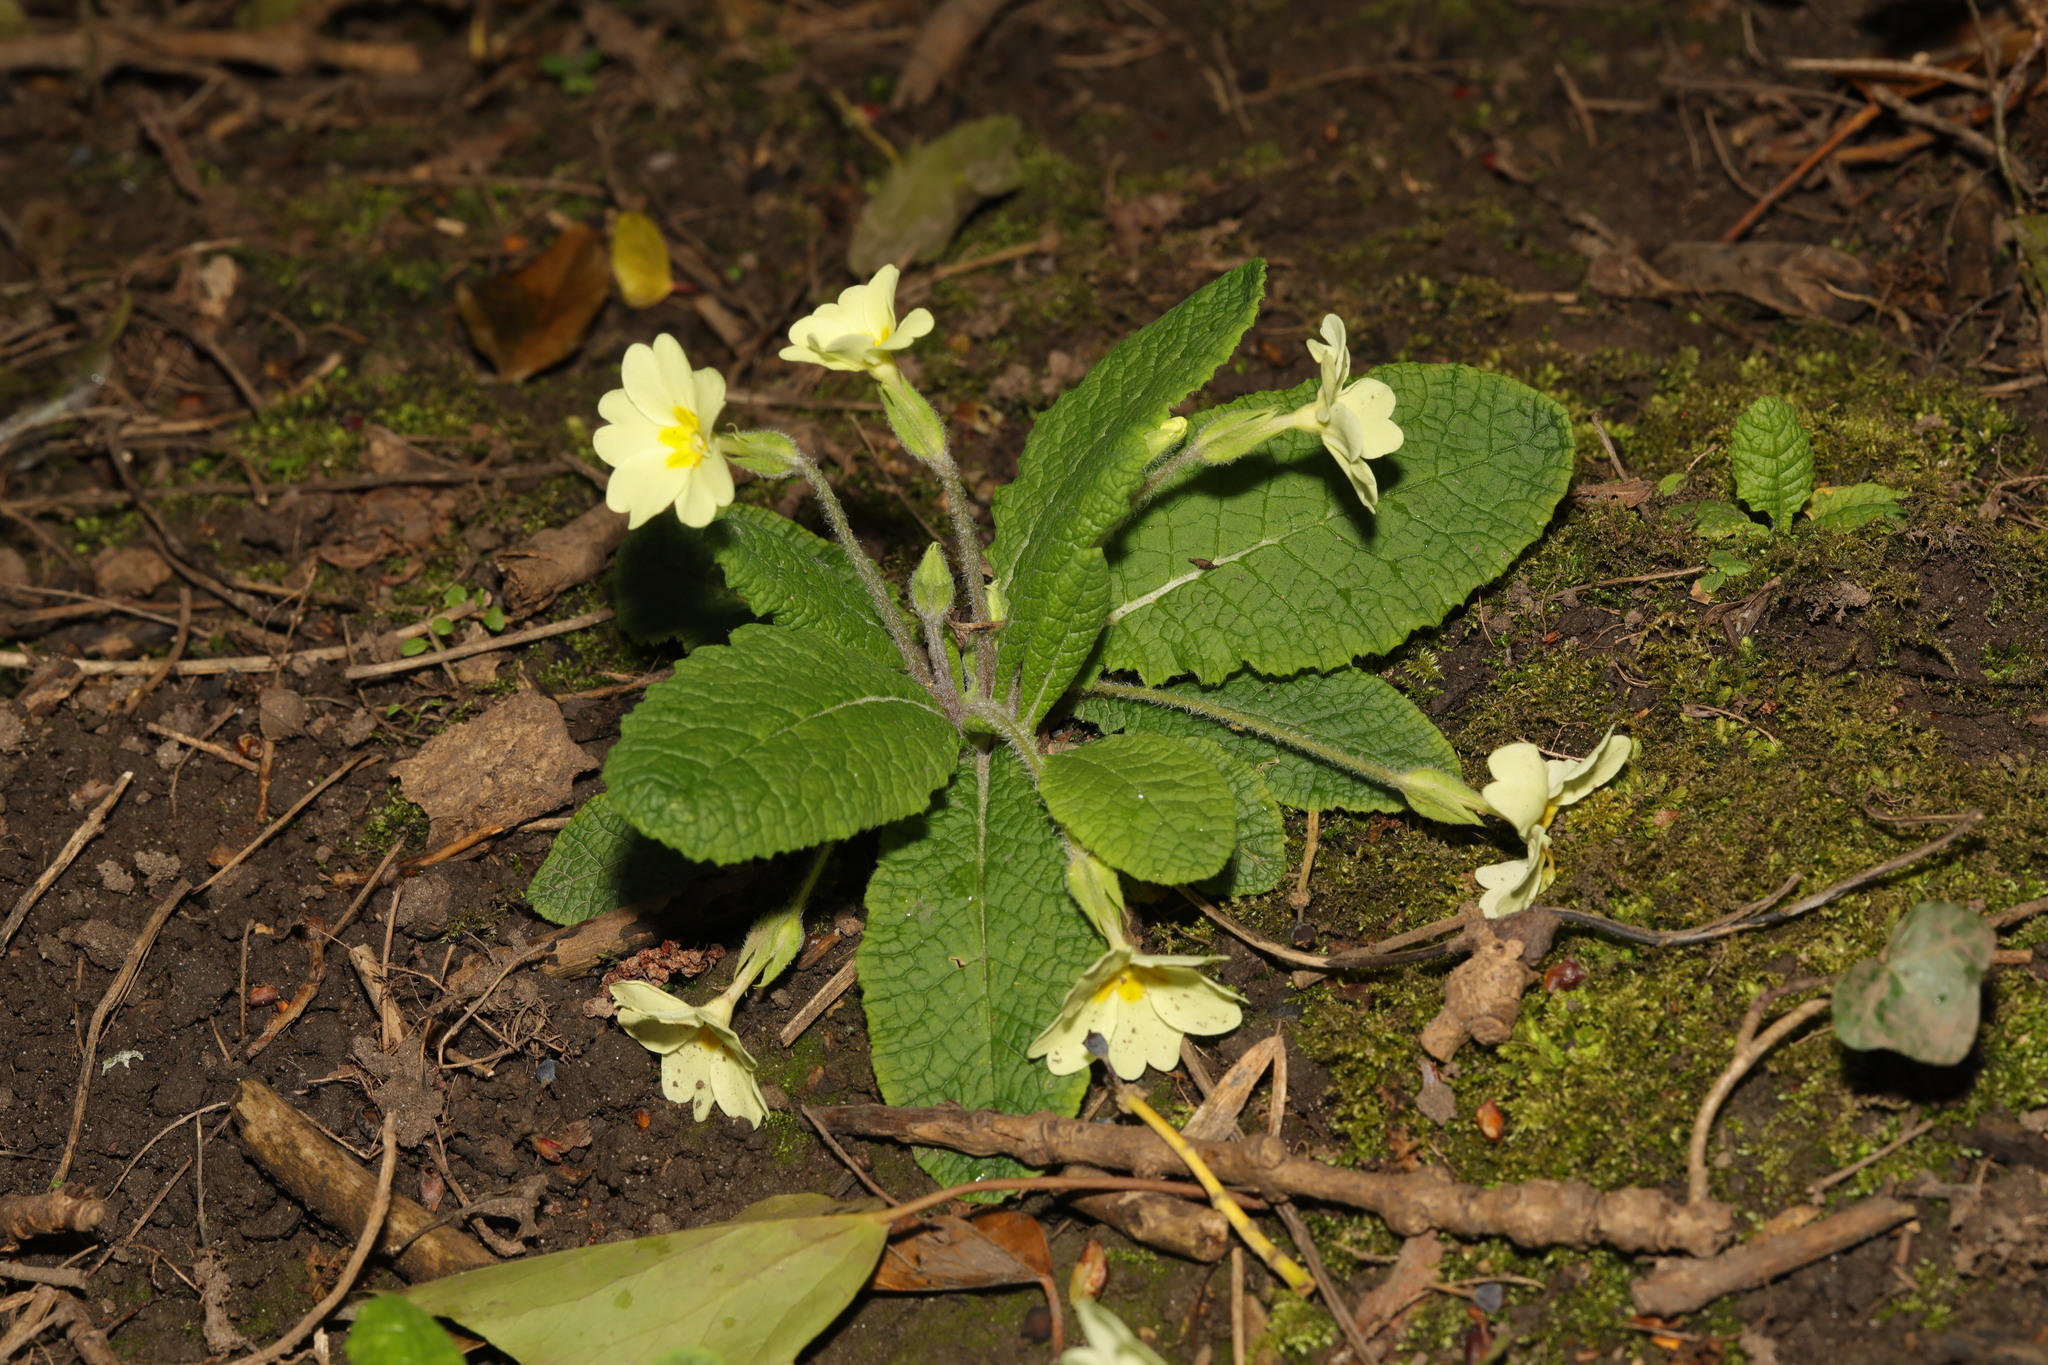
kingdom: Plantae
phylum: Tracheophyta
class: Magnoliopsida
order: Ericales
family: Primulaceae
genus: Primula
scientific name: Primula vulgaris
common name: Primrose
